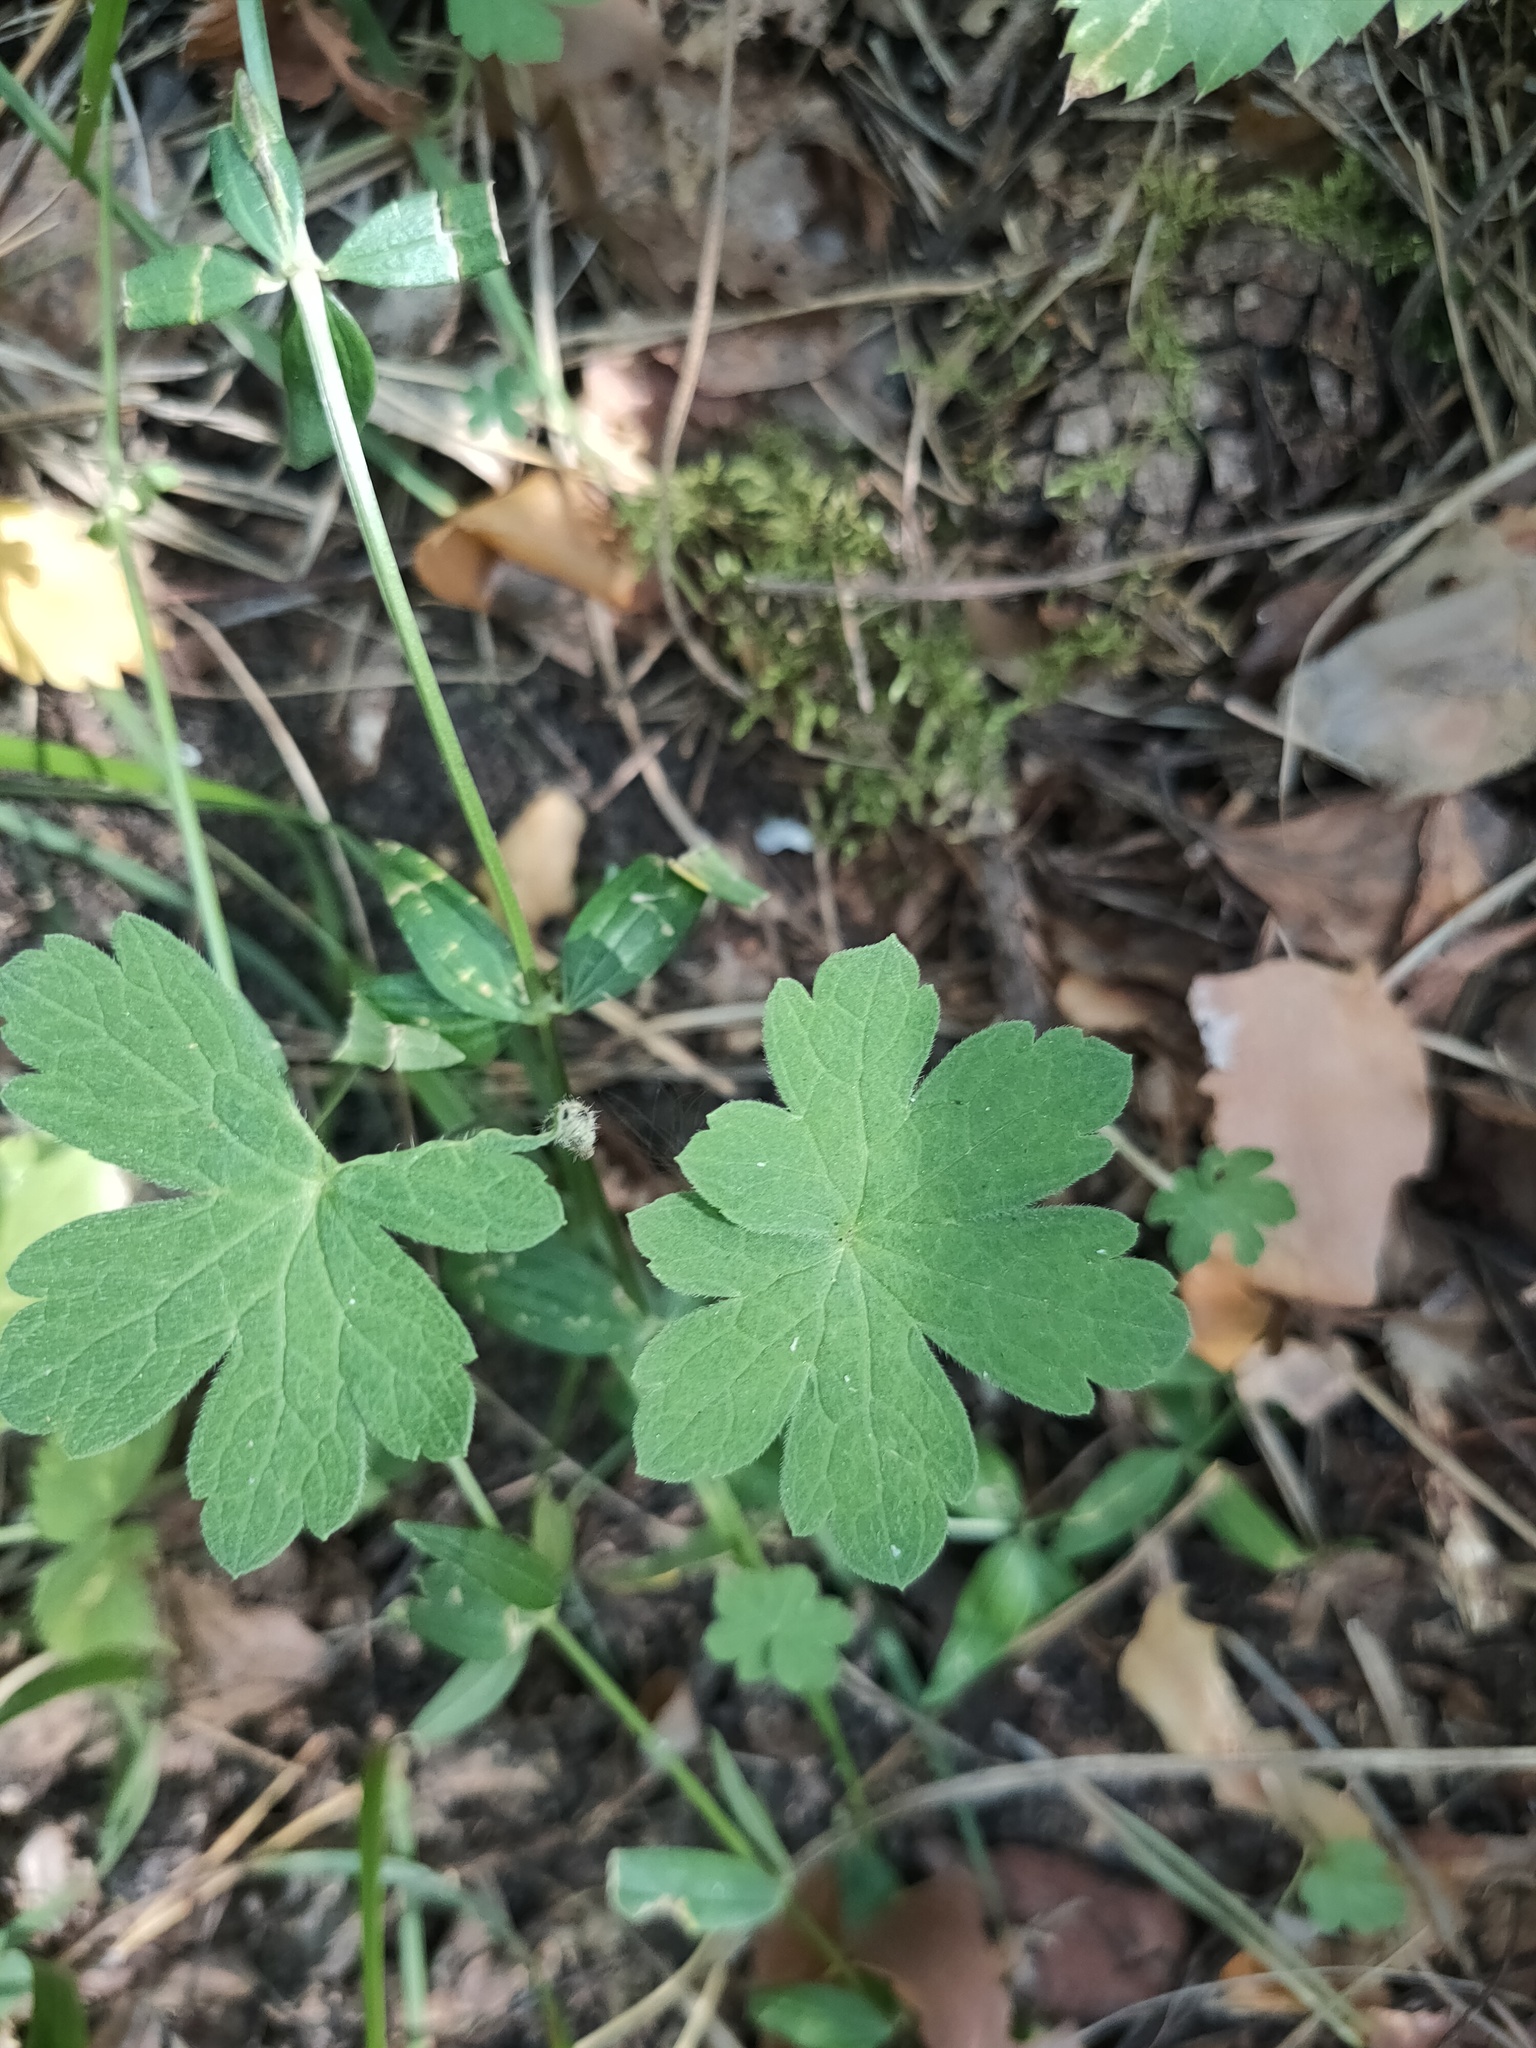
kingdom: Plantae
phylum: Tracheophyta
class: Magnoliopsida
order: Geraniales
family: Geraniaceae
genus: Geranium
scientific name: Geranium sylvaticum
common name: Wood crane's-bill
